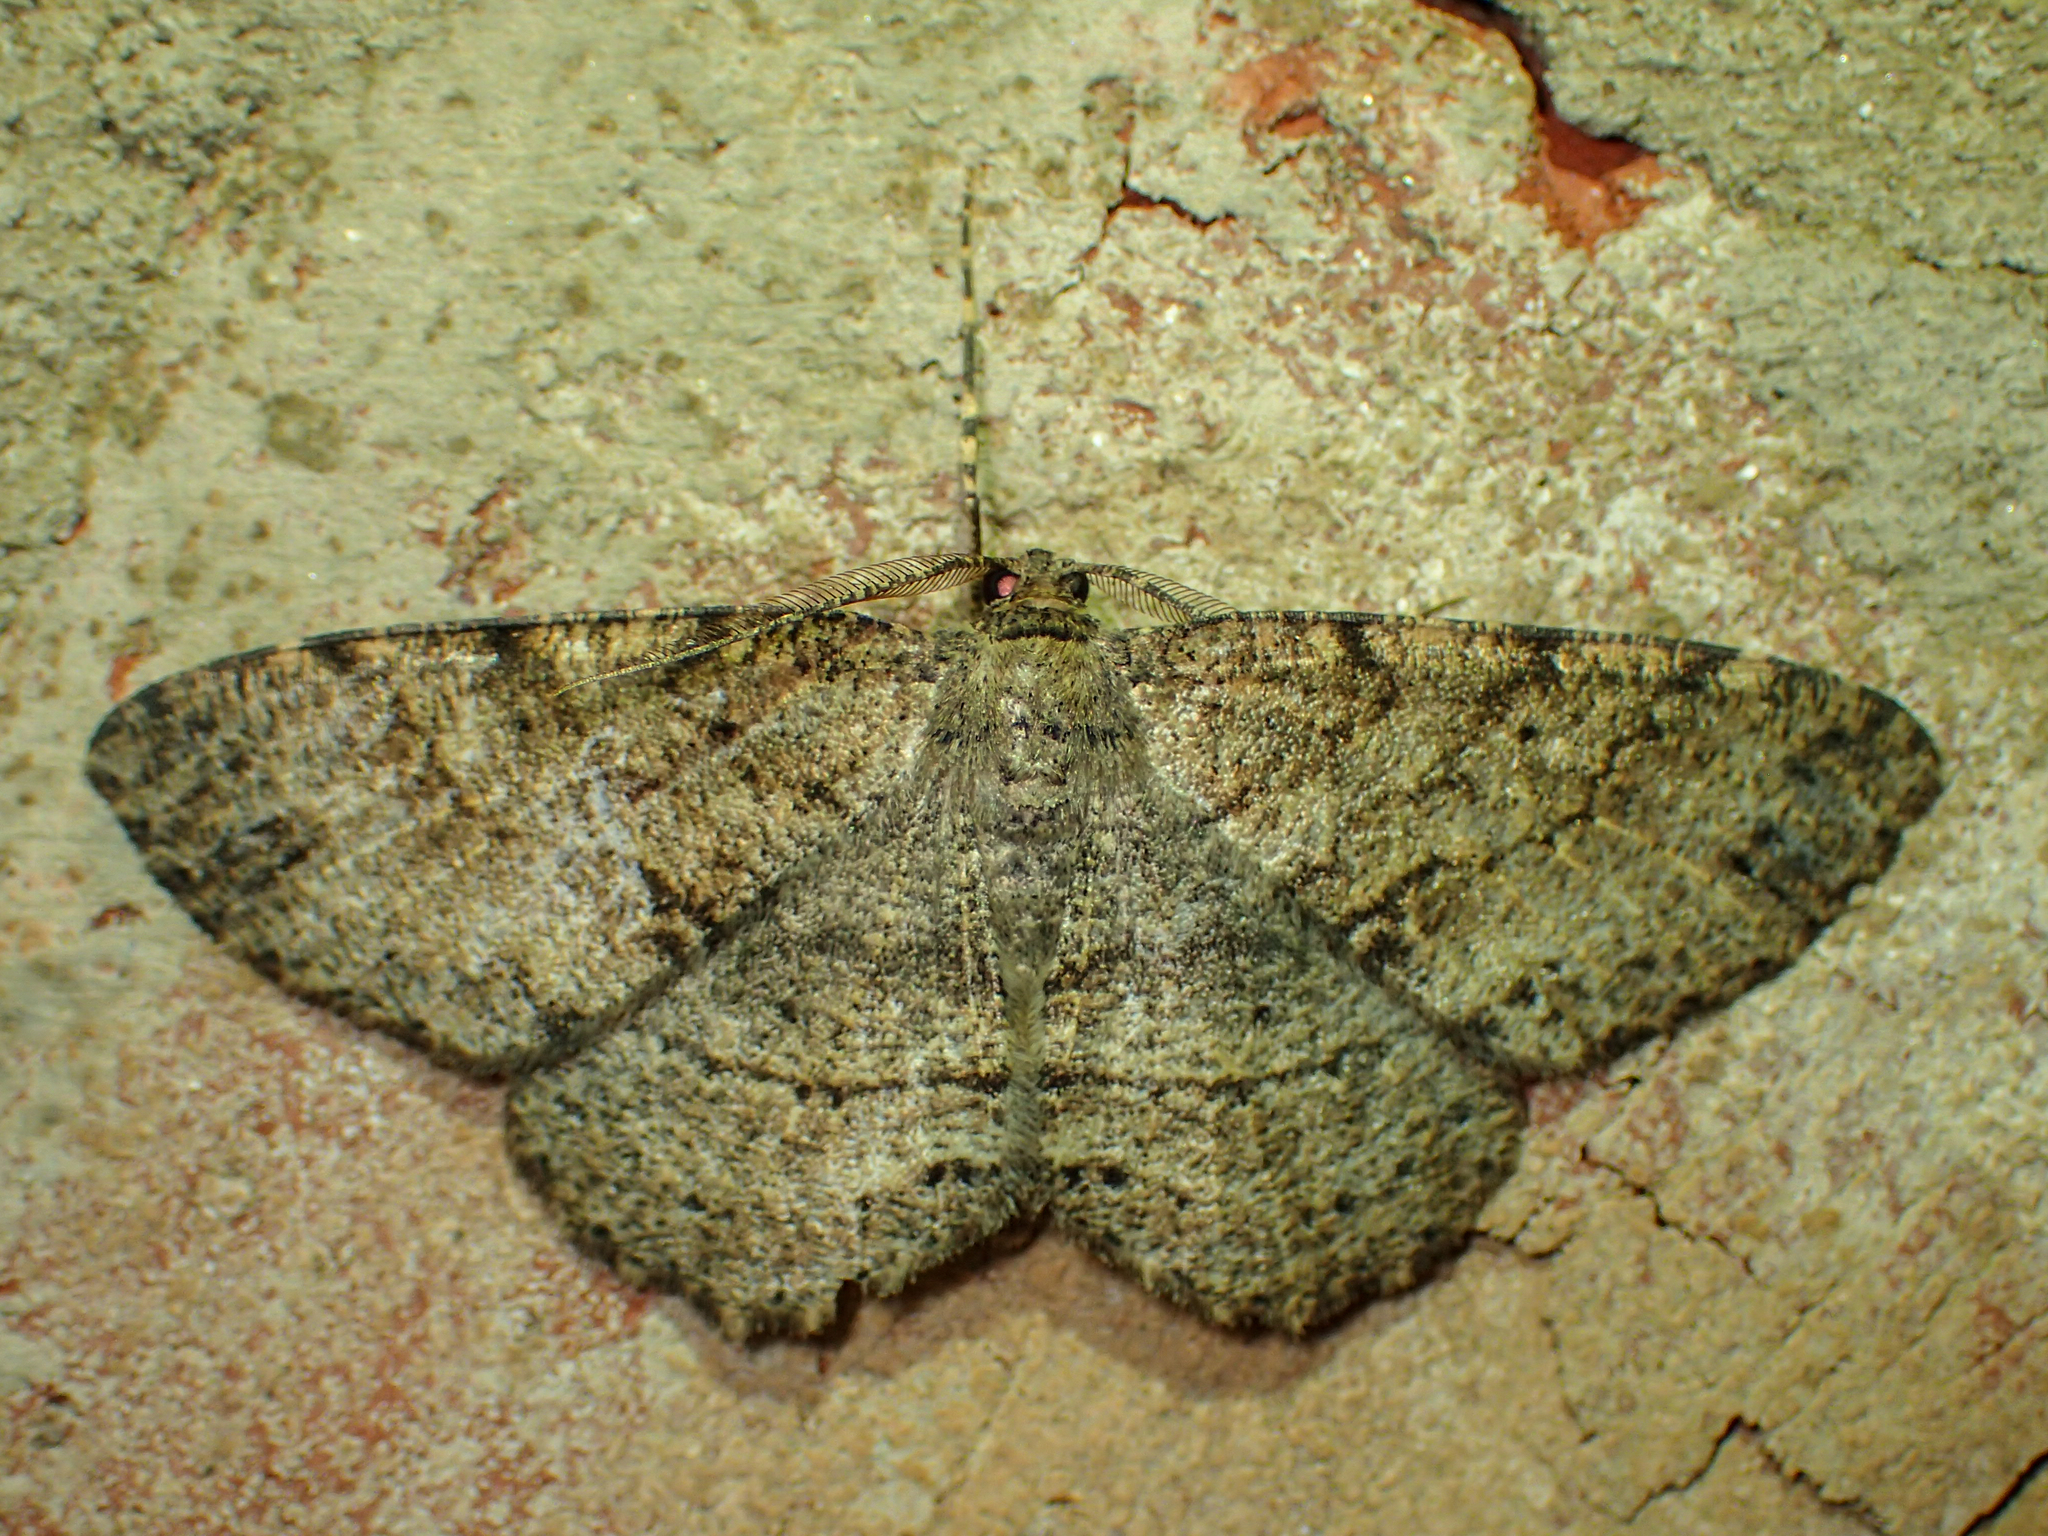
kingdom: Animalia
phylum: Arthropoda
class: Insecta
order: Lepidoptera
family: Geometridae
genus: Melanolophia
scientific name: Melanolophia canadaria
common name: Canadian melanolophia
